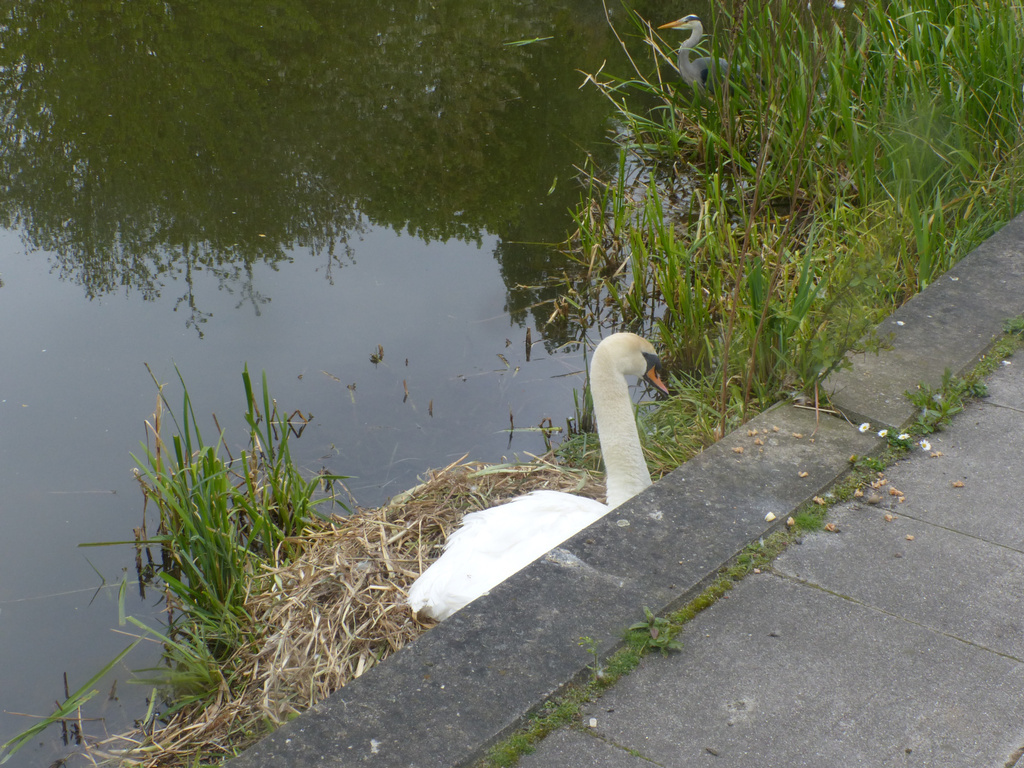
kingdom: Animalia
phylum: Chordata
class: Aves
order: Anseriformes
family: Anatidae
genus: Cygnus
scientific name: Cygnus olor
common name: Mute swan
